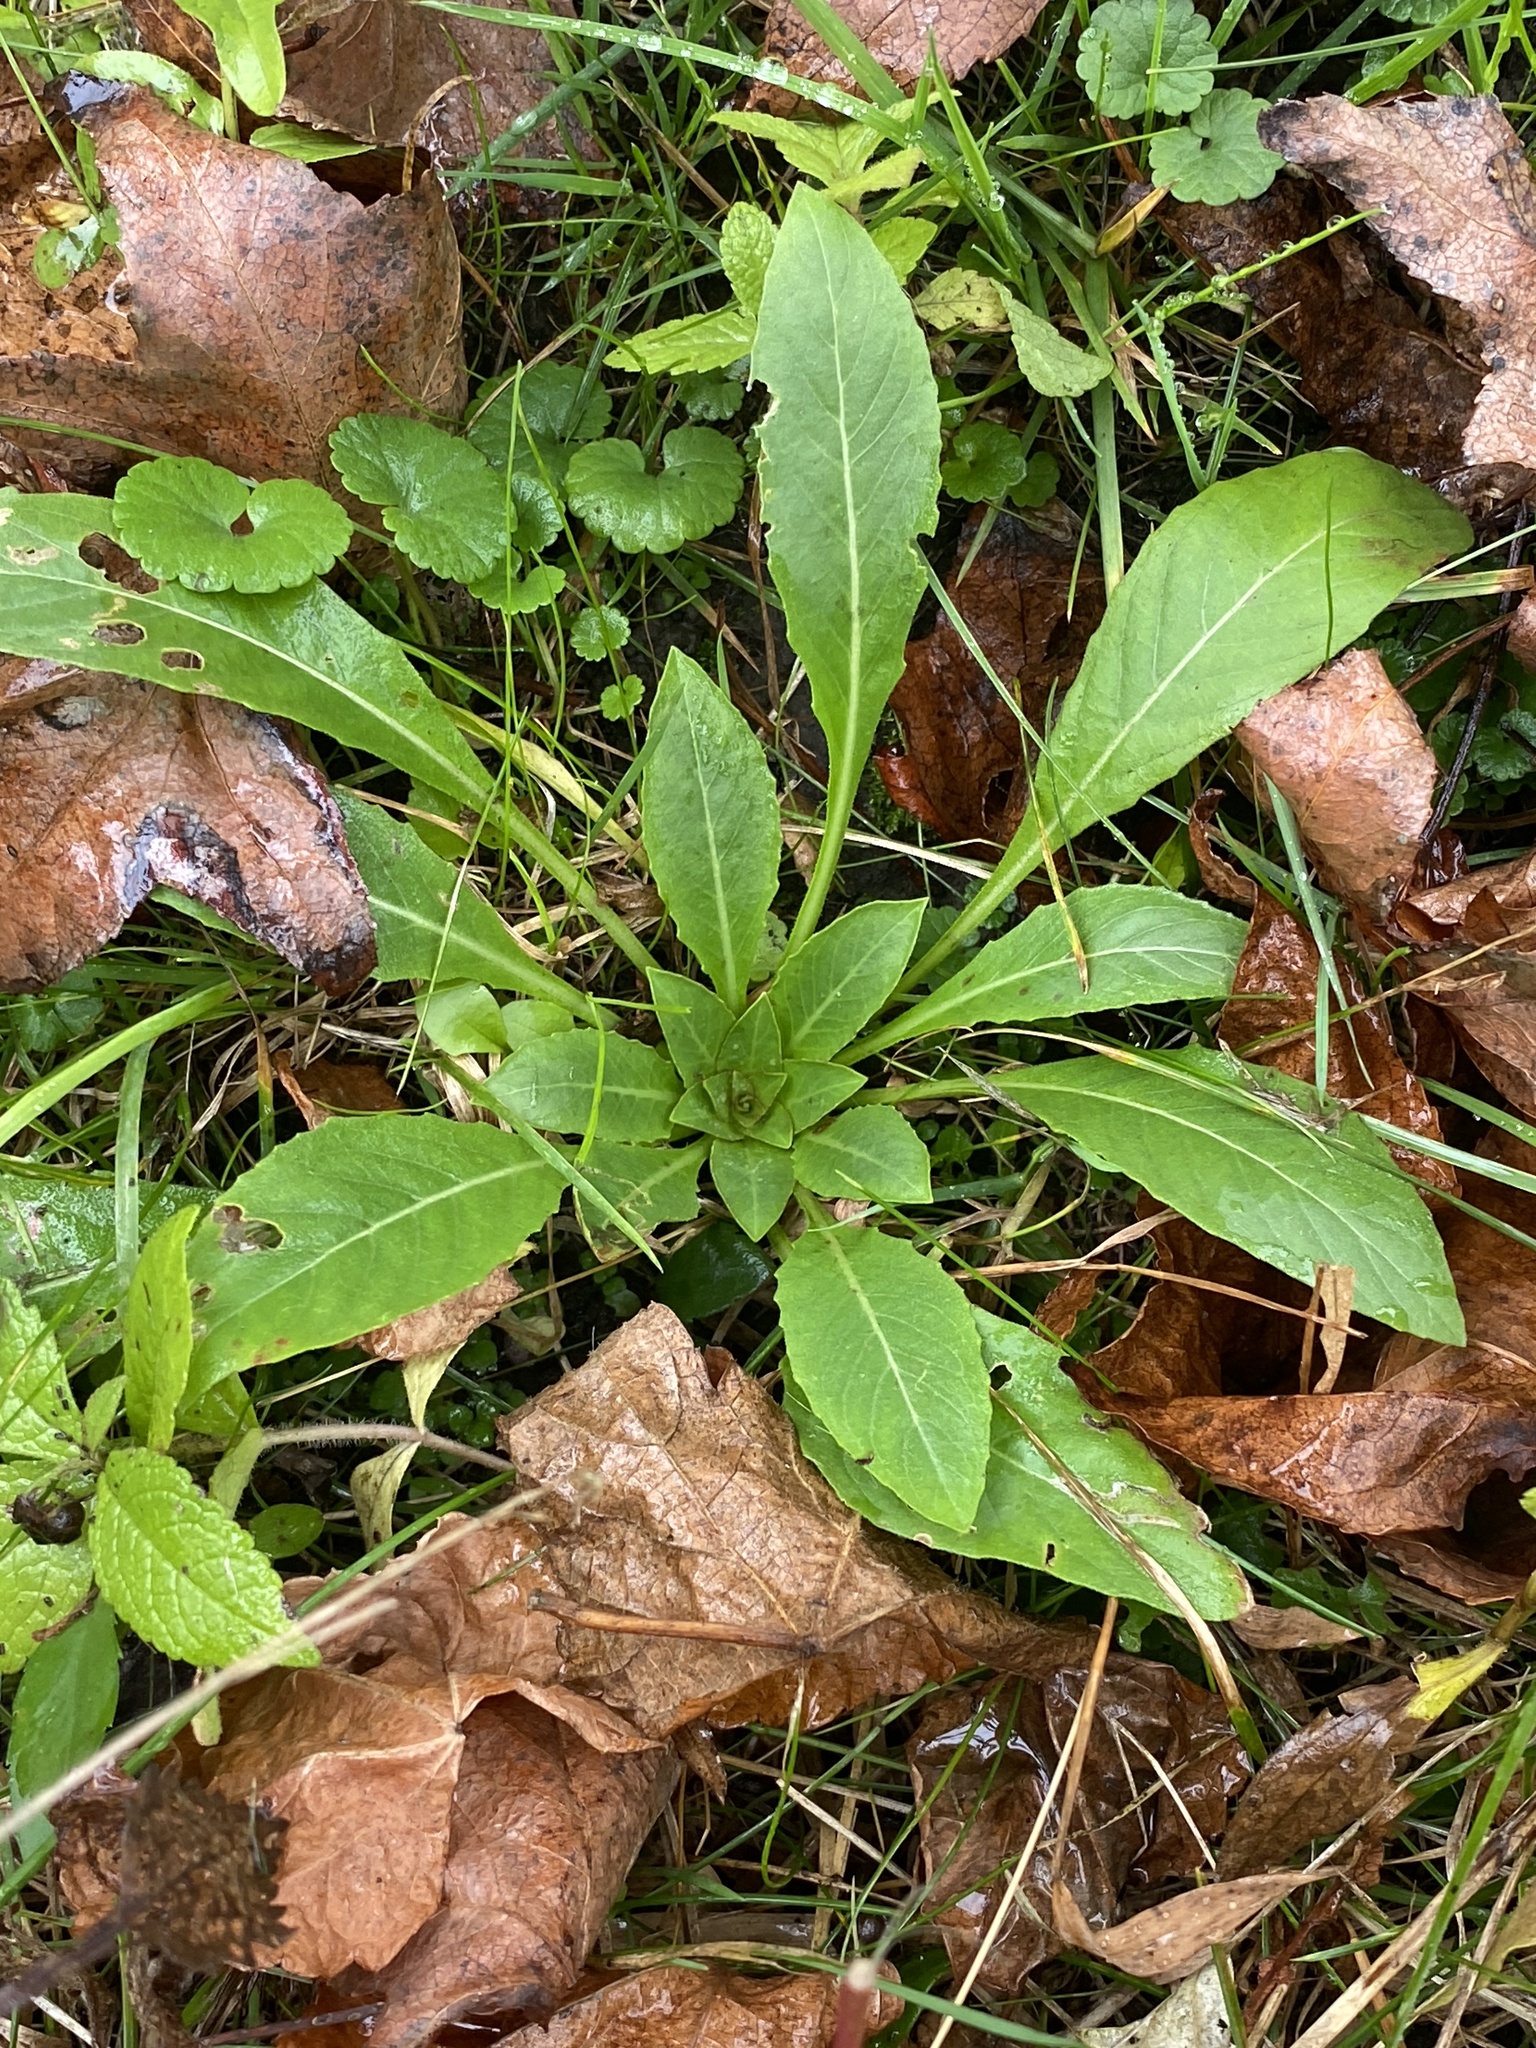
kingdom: Plantae
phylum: Tracheophyta
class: Magnoliopsida
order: Myrtales
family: Onagraceae
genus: Oenothera
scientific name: Oenothera biennis
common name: Common evening-primrose
